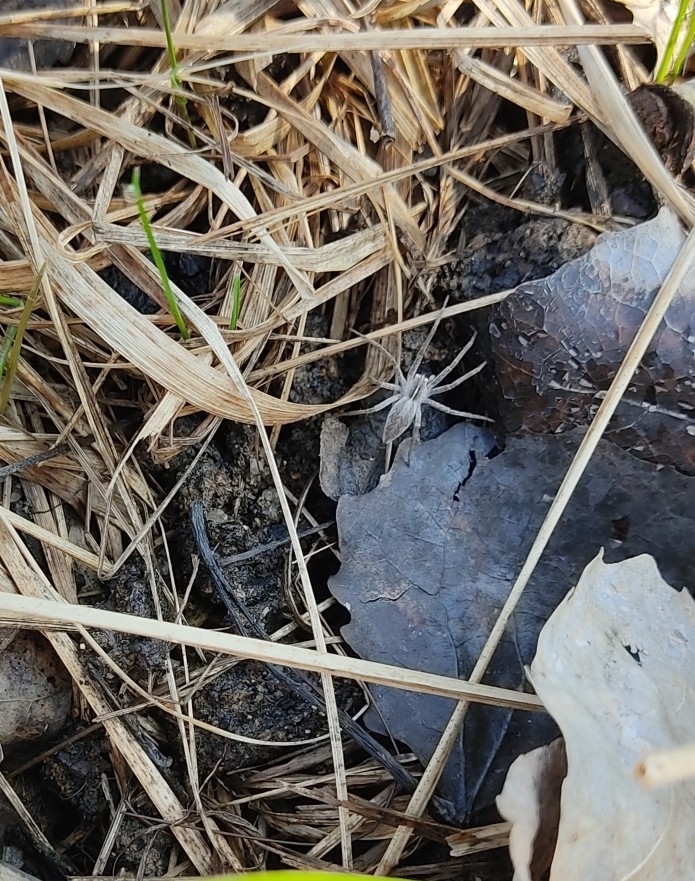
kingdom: Animalia
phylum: Arthropoda
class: Arachnida
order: Araneae
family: Pisauridae
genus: Pisaura
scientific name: Pisaura mirabilis
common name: Tent spider
